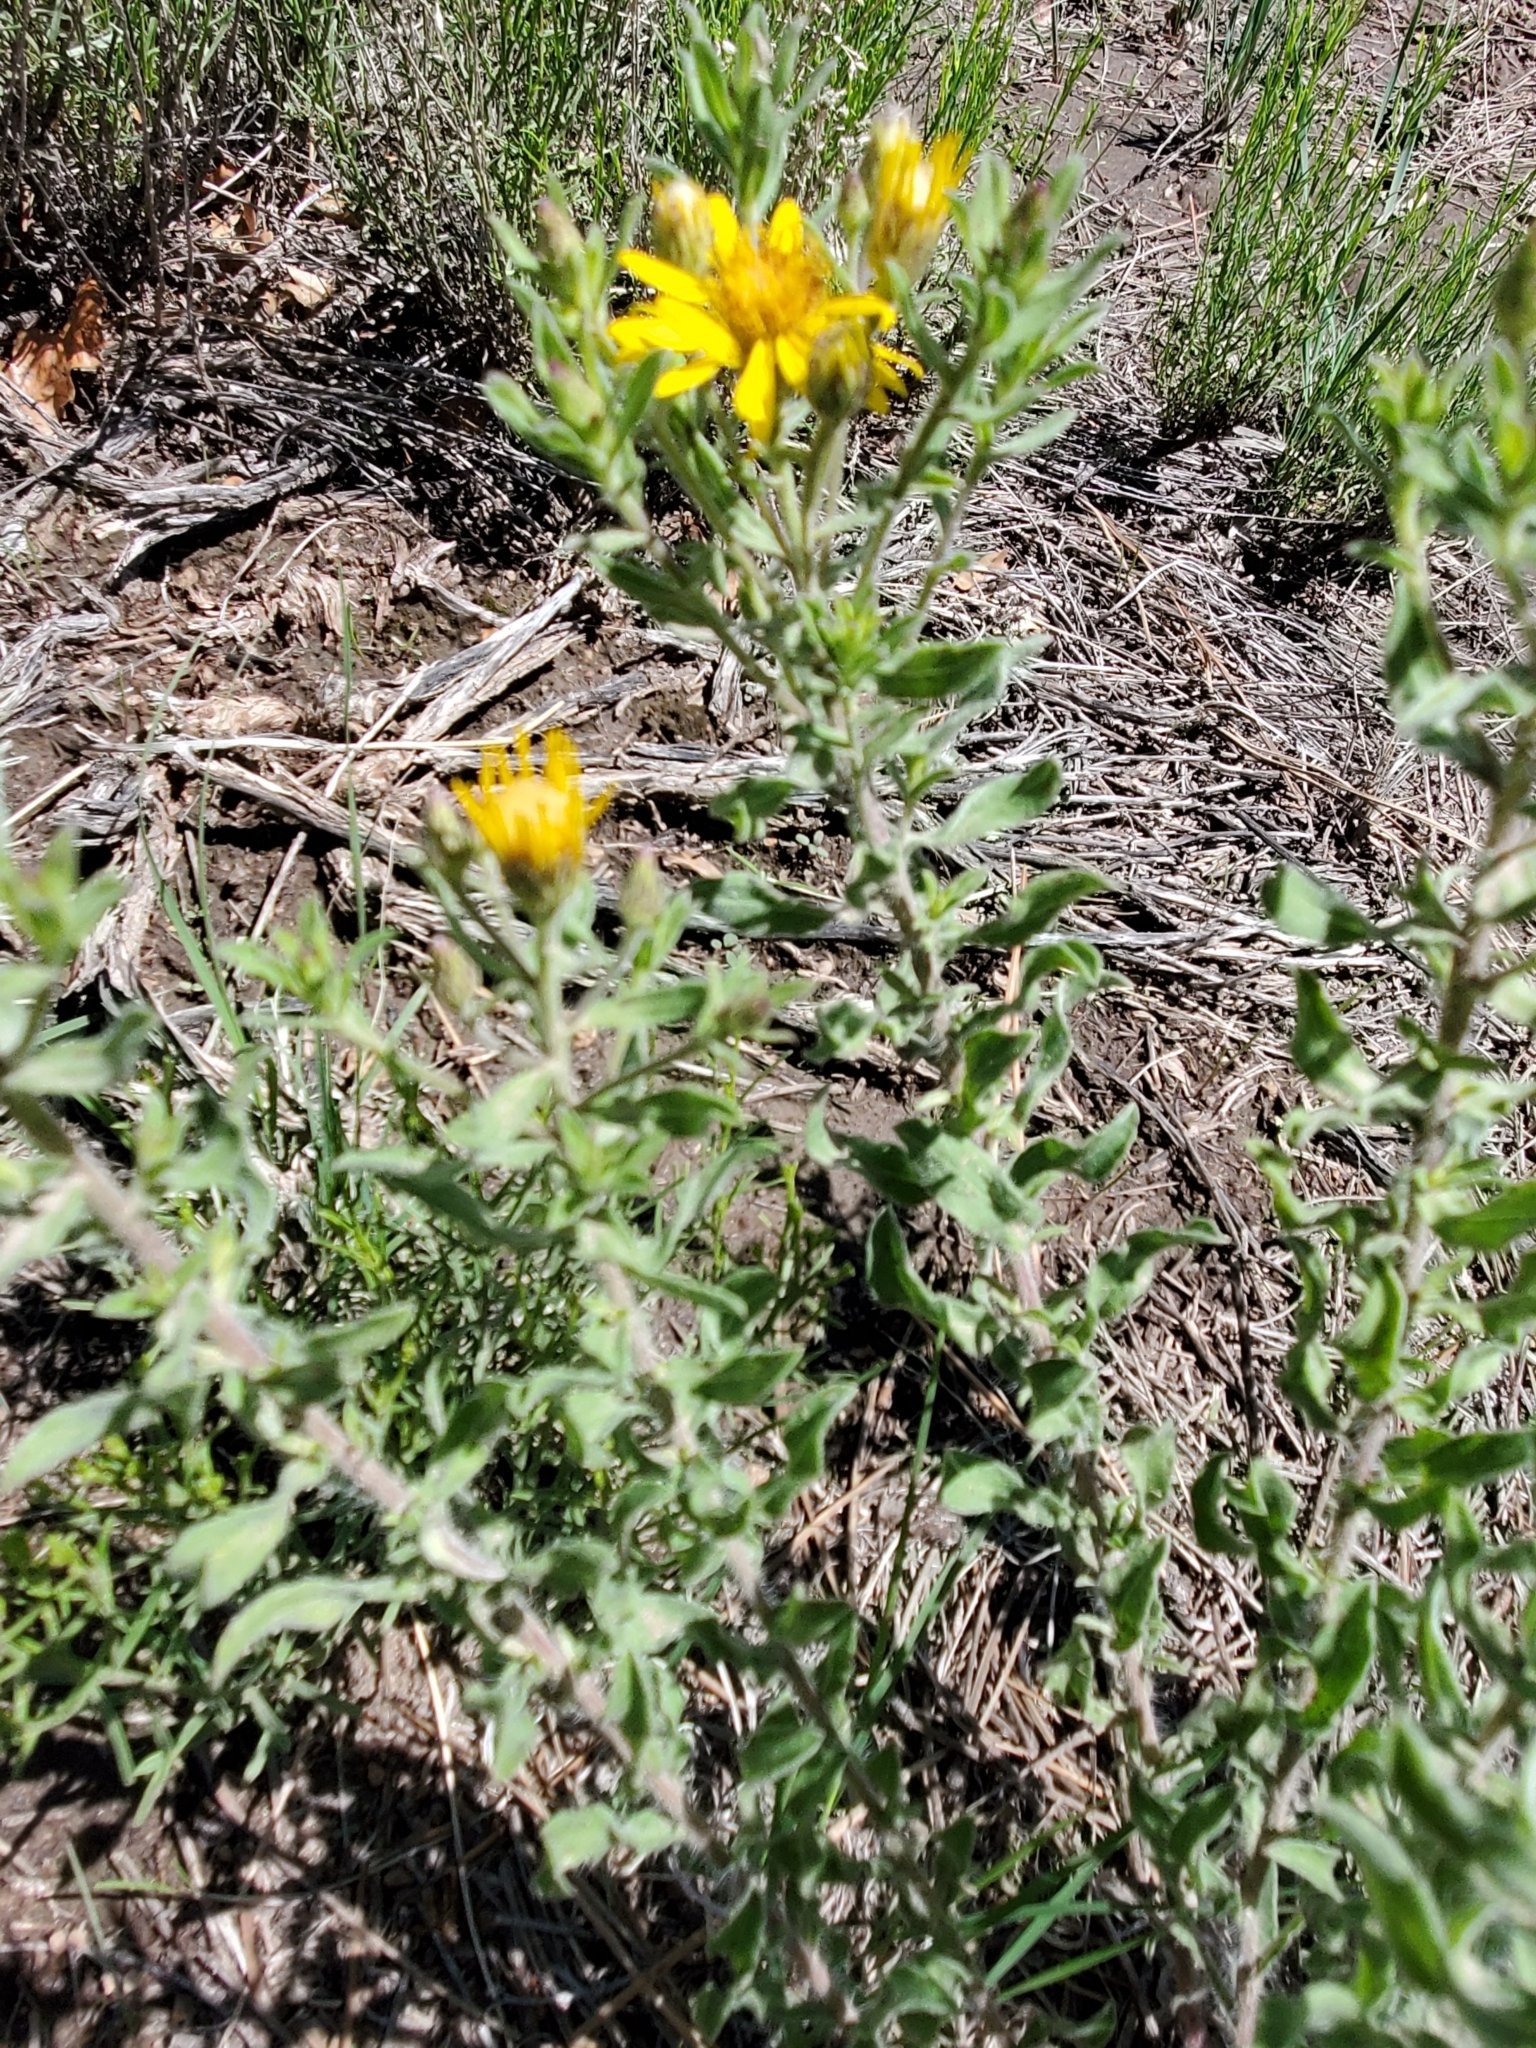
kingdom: Plantae
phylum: Tracheophyta
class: Magnoliopsida
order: Asterales
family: Asteraceae
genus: Heterotheca
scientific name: Heterotheca hirsutissima
